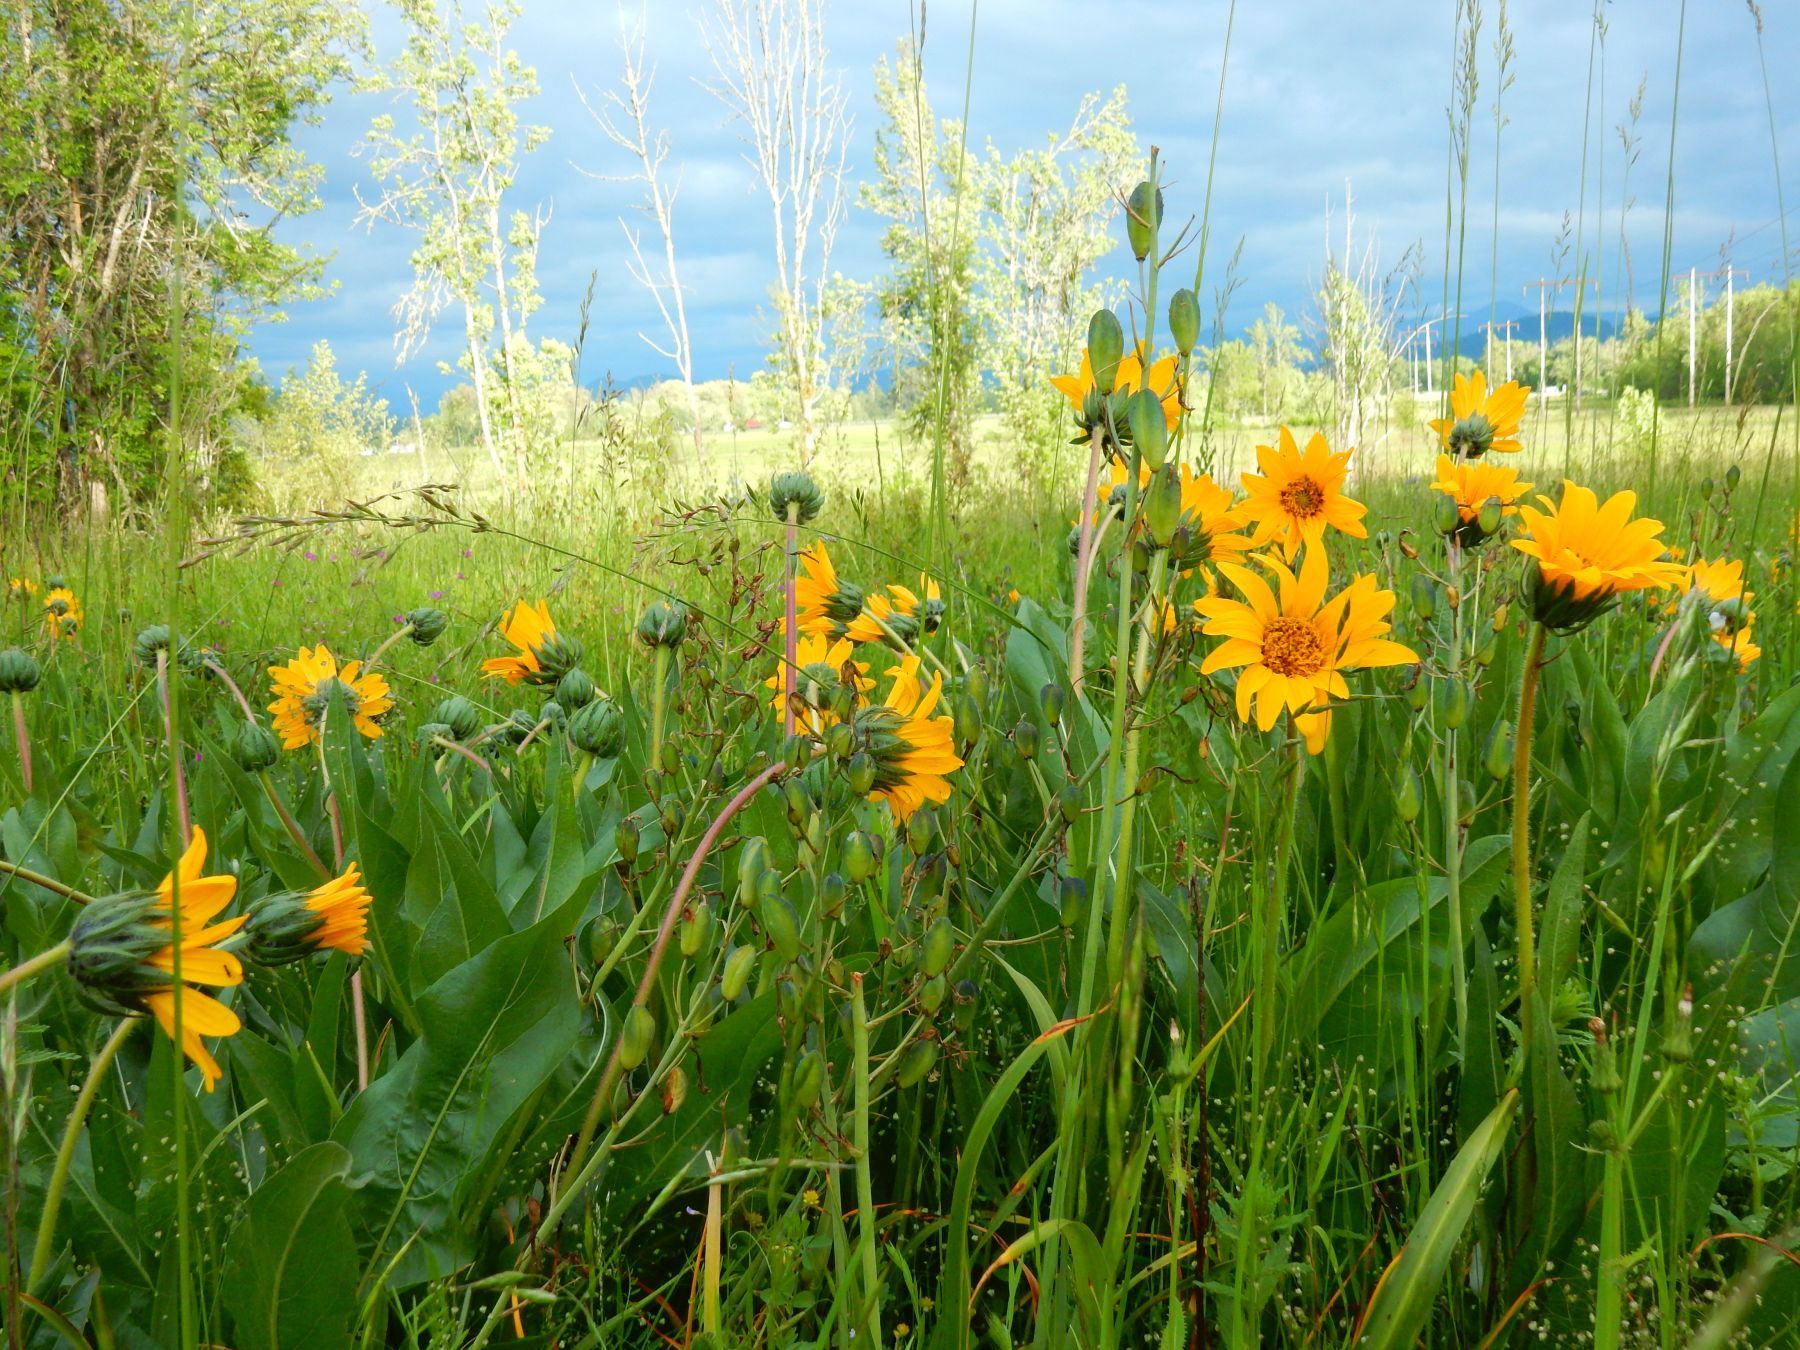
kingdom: Plantae
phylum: Tracheophyta
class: Magnoliopsida
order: Asterales
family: Asteraceae
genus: Wyethia
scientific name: Wyethia angustifolia
